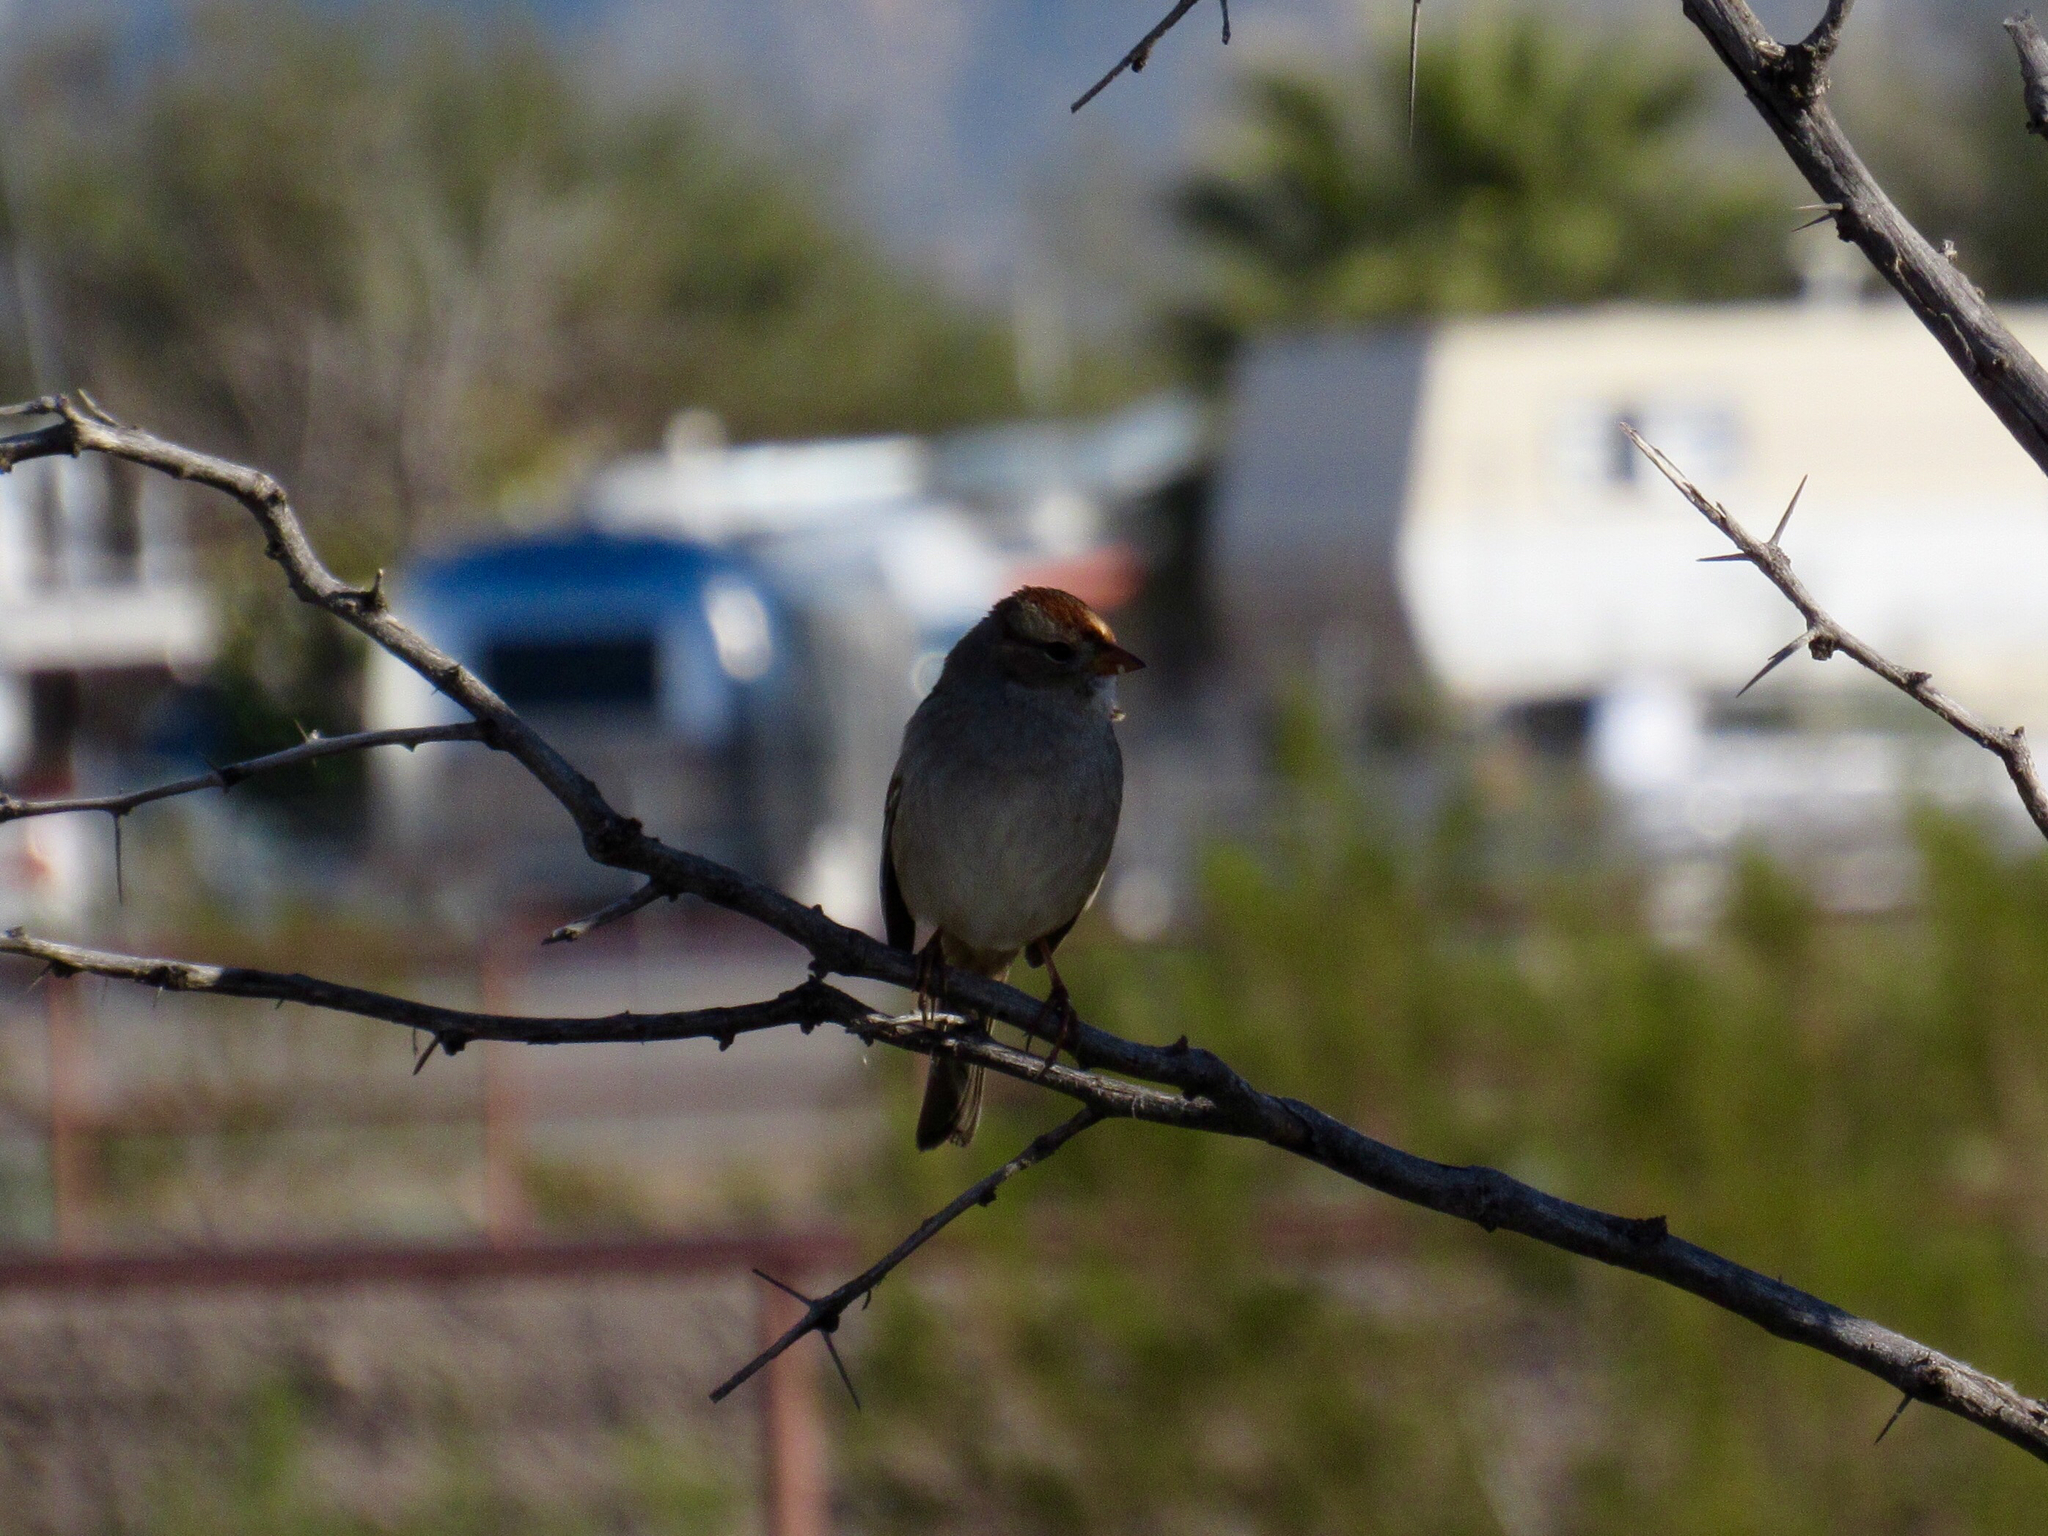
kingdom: Animalia
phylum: Chordata
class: Aves
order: Passeriformes
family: Passerellidae
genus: Zonotrichia
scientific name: Zonotrichia leucophrys
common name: White-crowned sparrow
